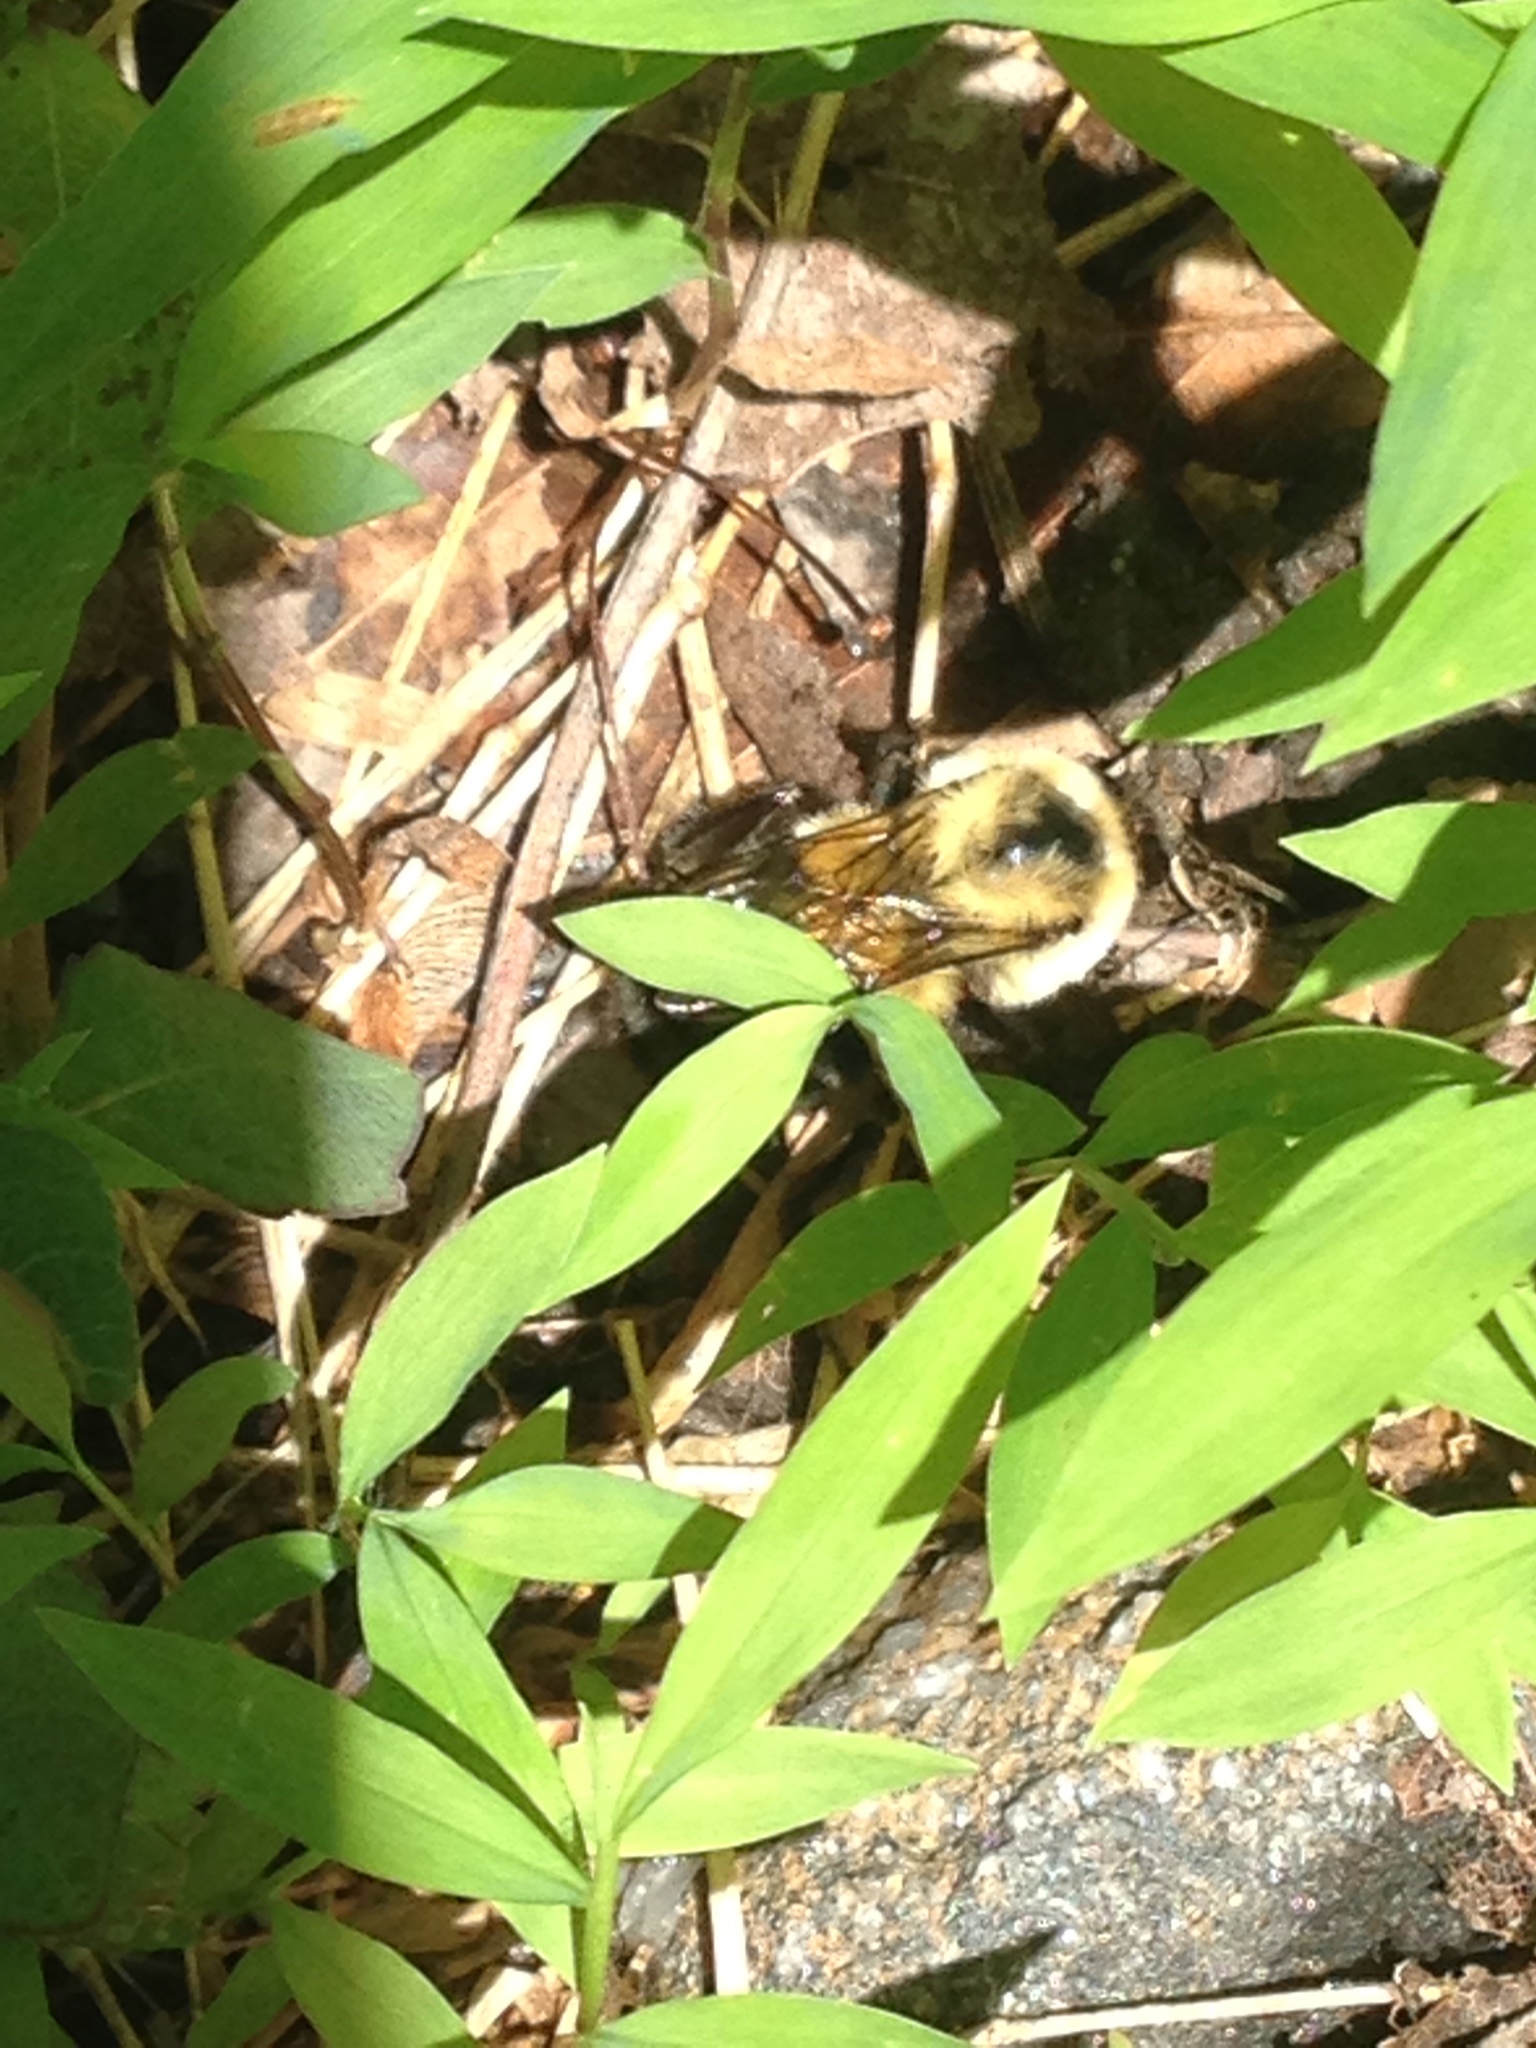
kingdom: Animalia
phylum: Arthropoda
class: Insecta
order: Hymenoptera
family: Apidae
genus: Bombus
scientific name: Bombus impatiens
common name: Common eastern bumble bee
